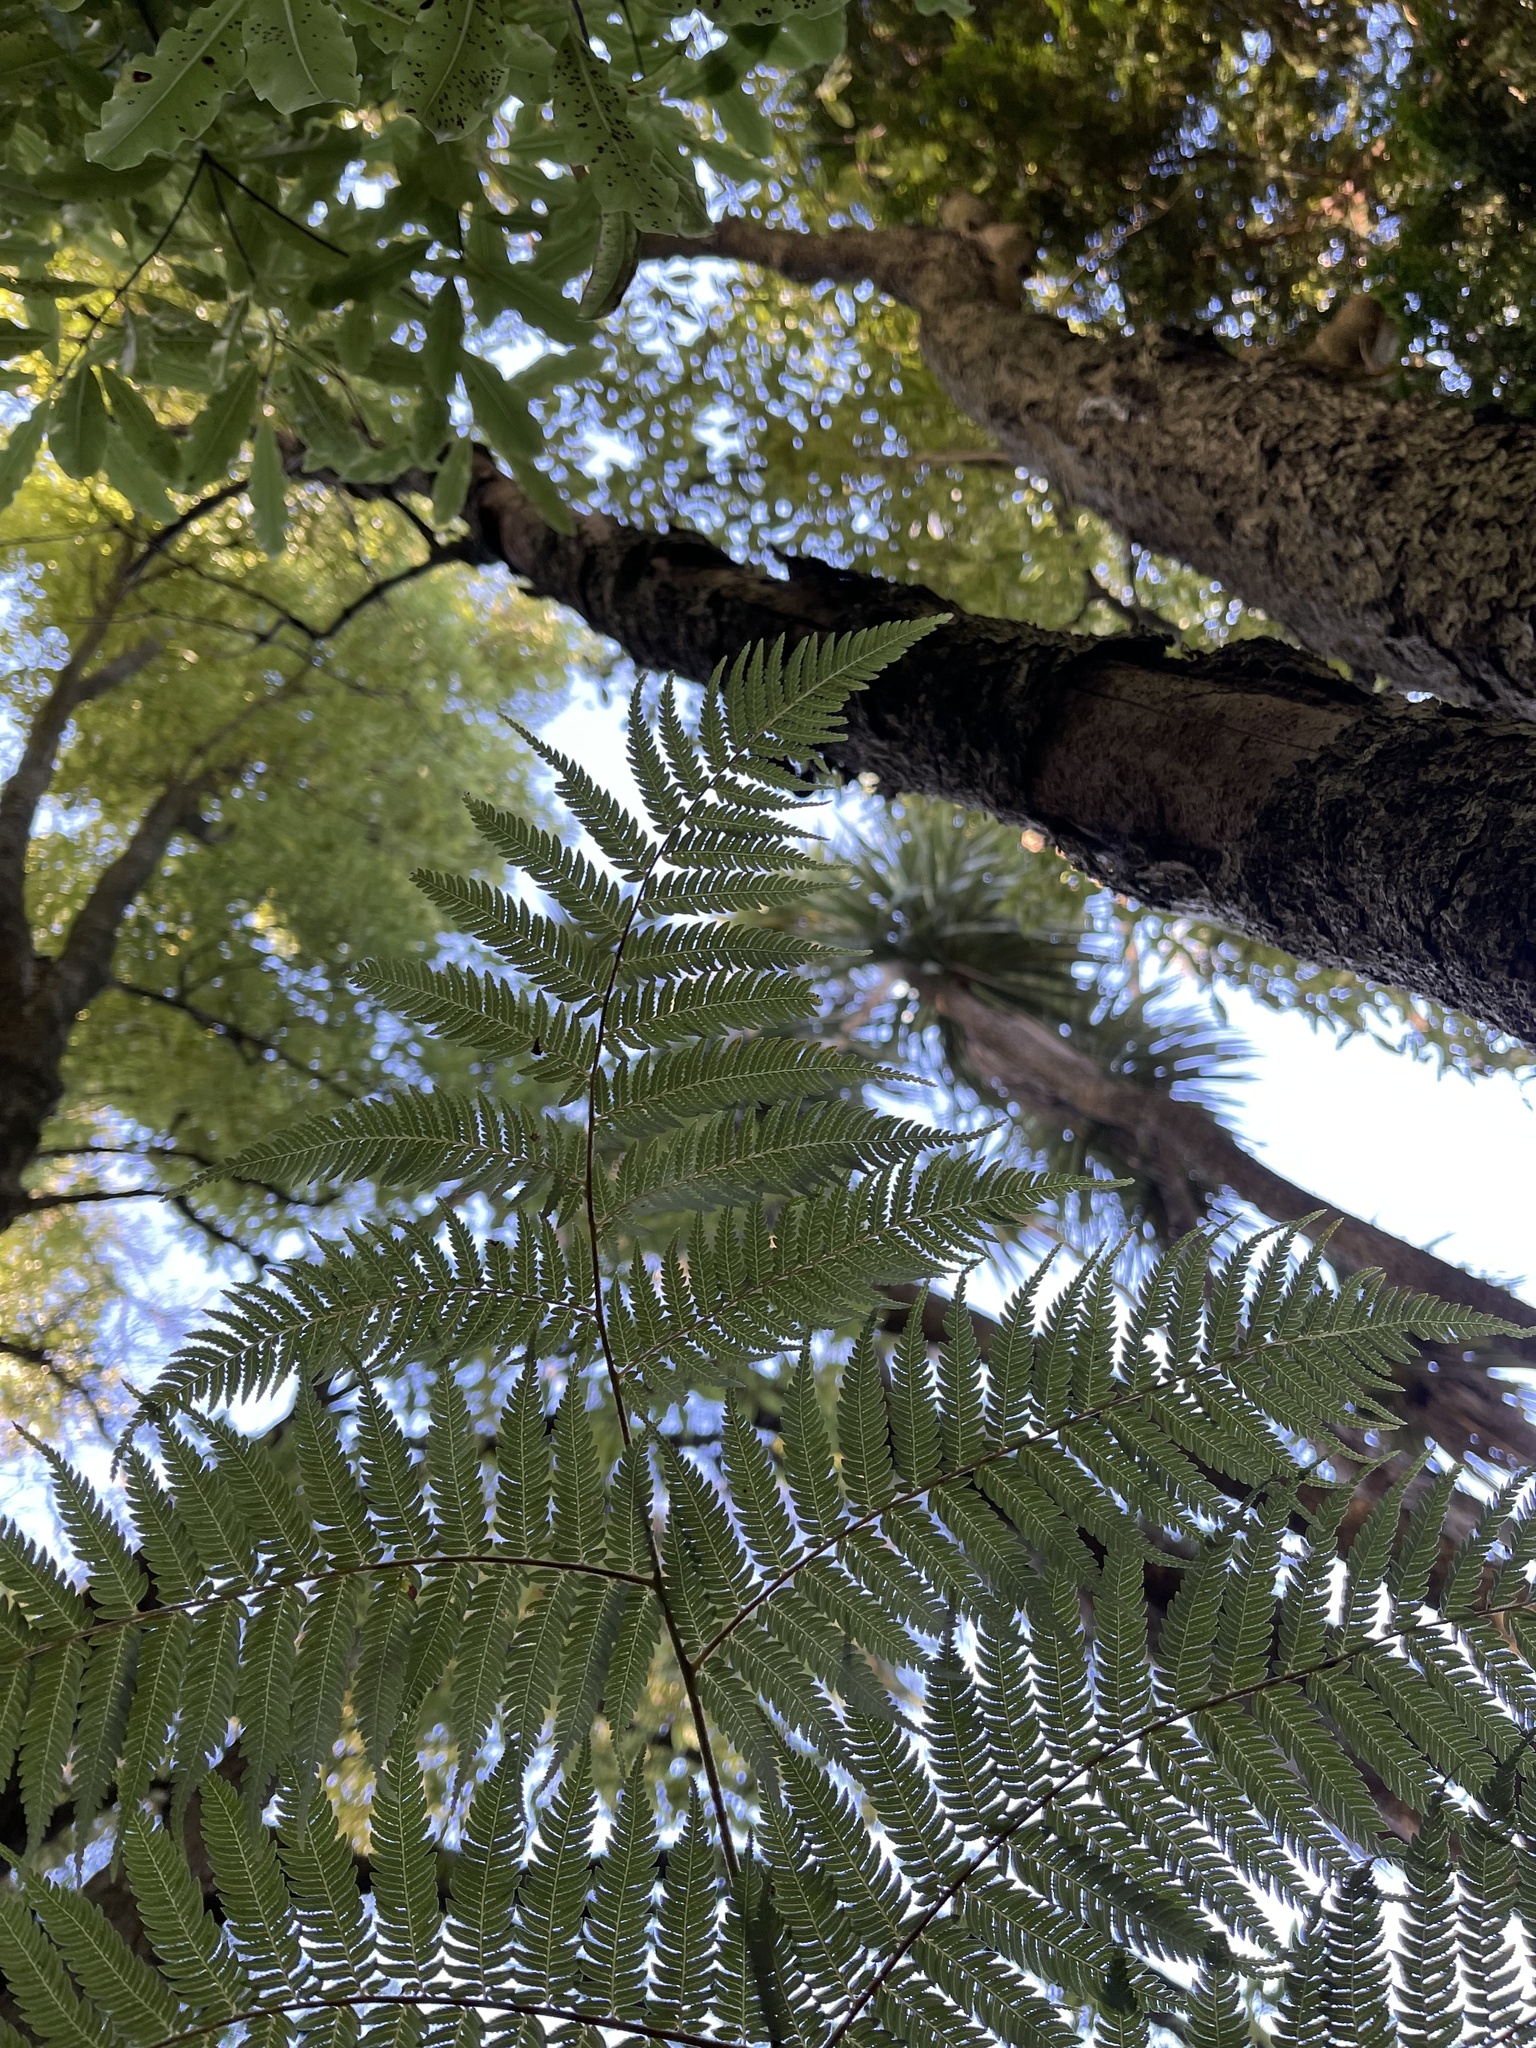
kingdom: Plantae
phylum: Tracheophyta
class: Polypodiopsida
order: Cyatheales
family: Cyatheaceae
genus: Alsophila
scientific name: Alsophila dealbata
